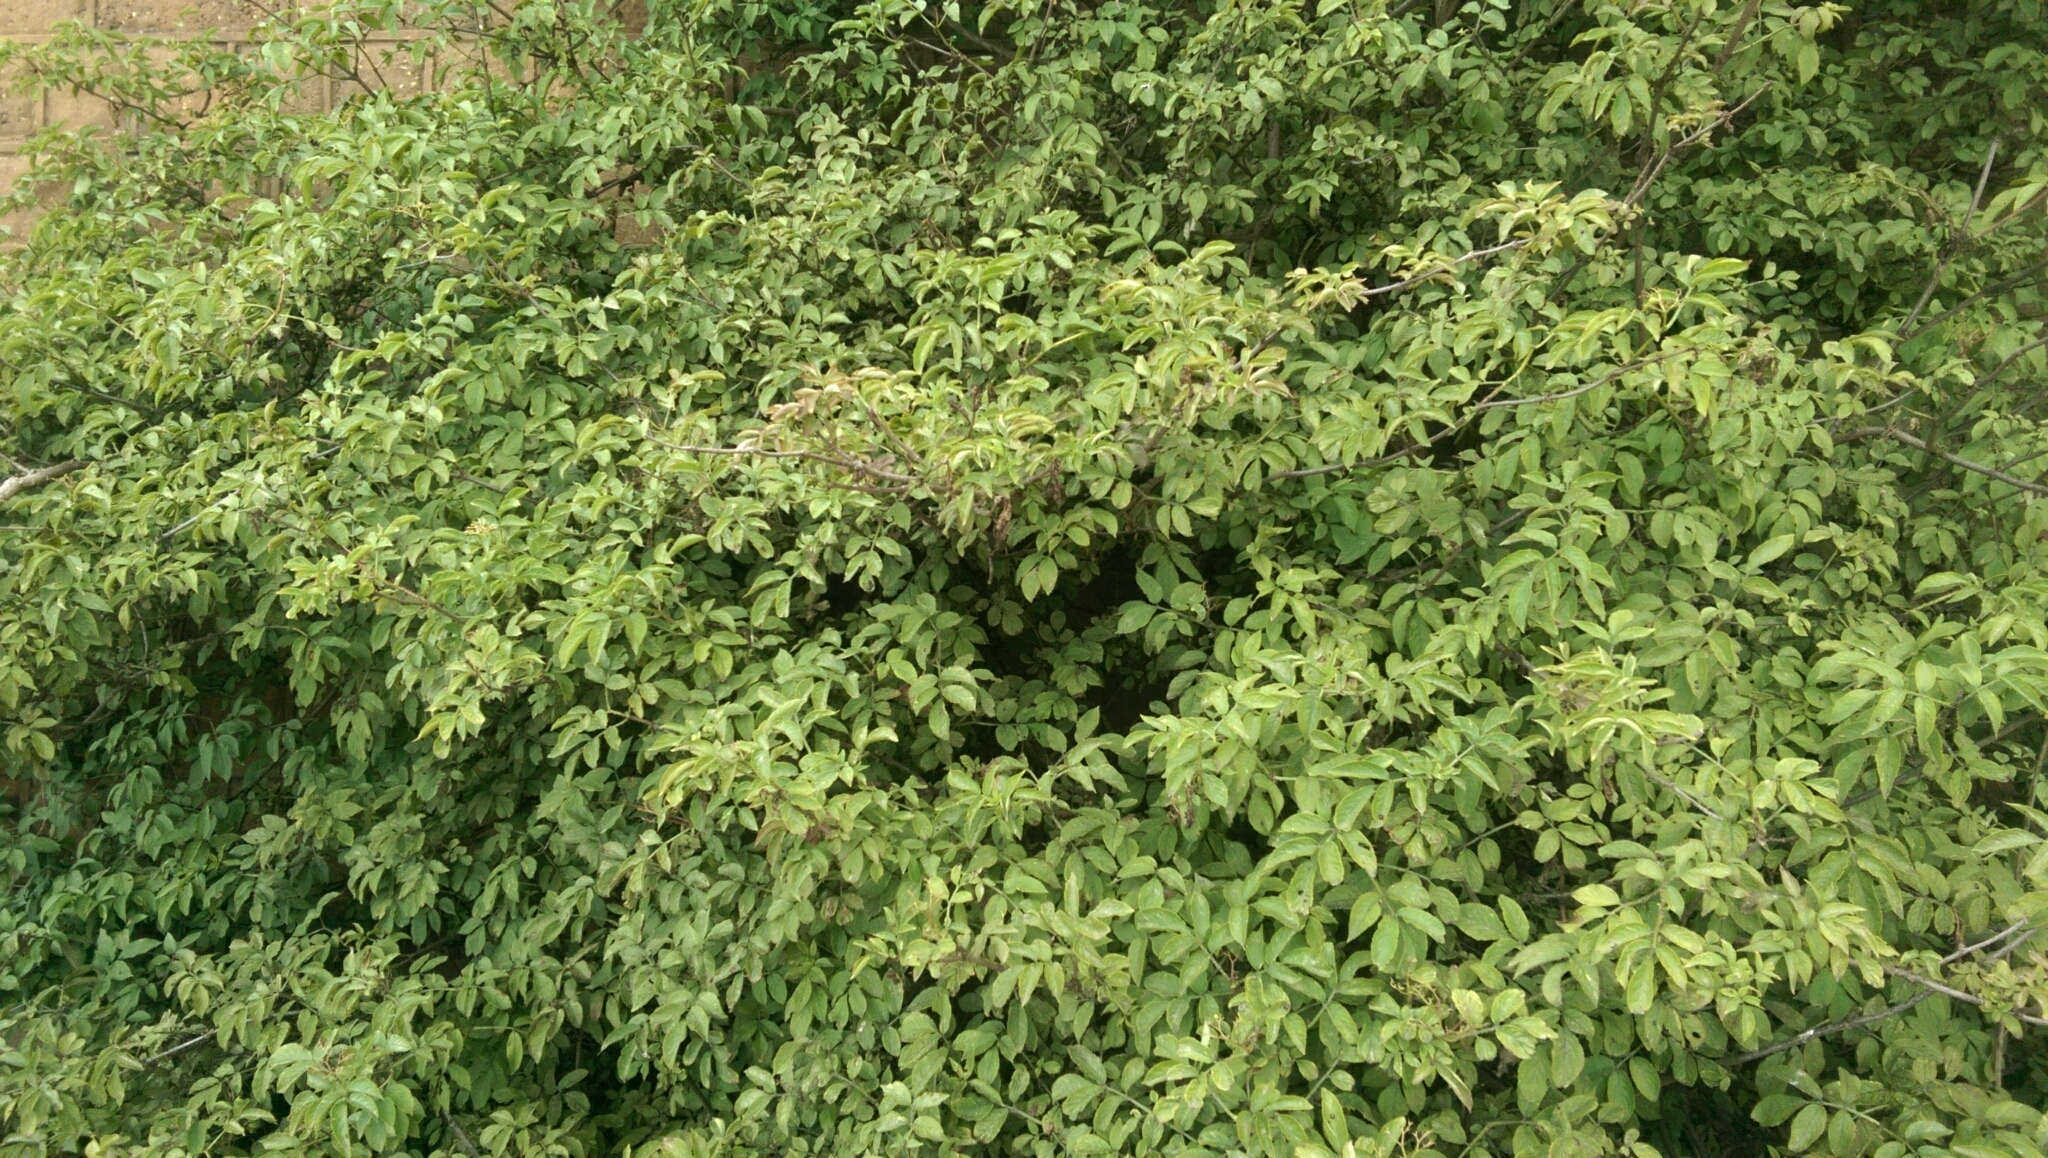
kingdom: Plantae
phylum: Tracheophyta
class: Magnoliopsida
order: Dipsacales
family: Viburnaceae
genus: Sambucus
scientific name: Sambucus nigra
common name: Elder
